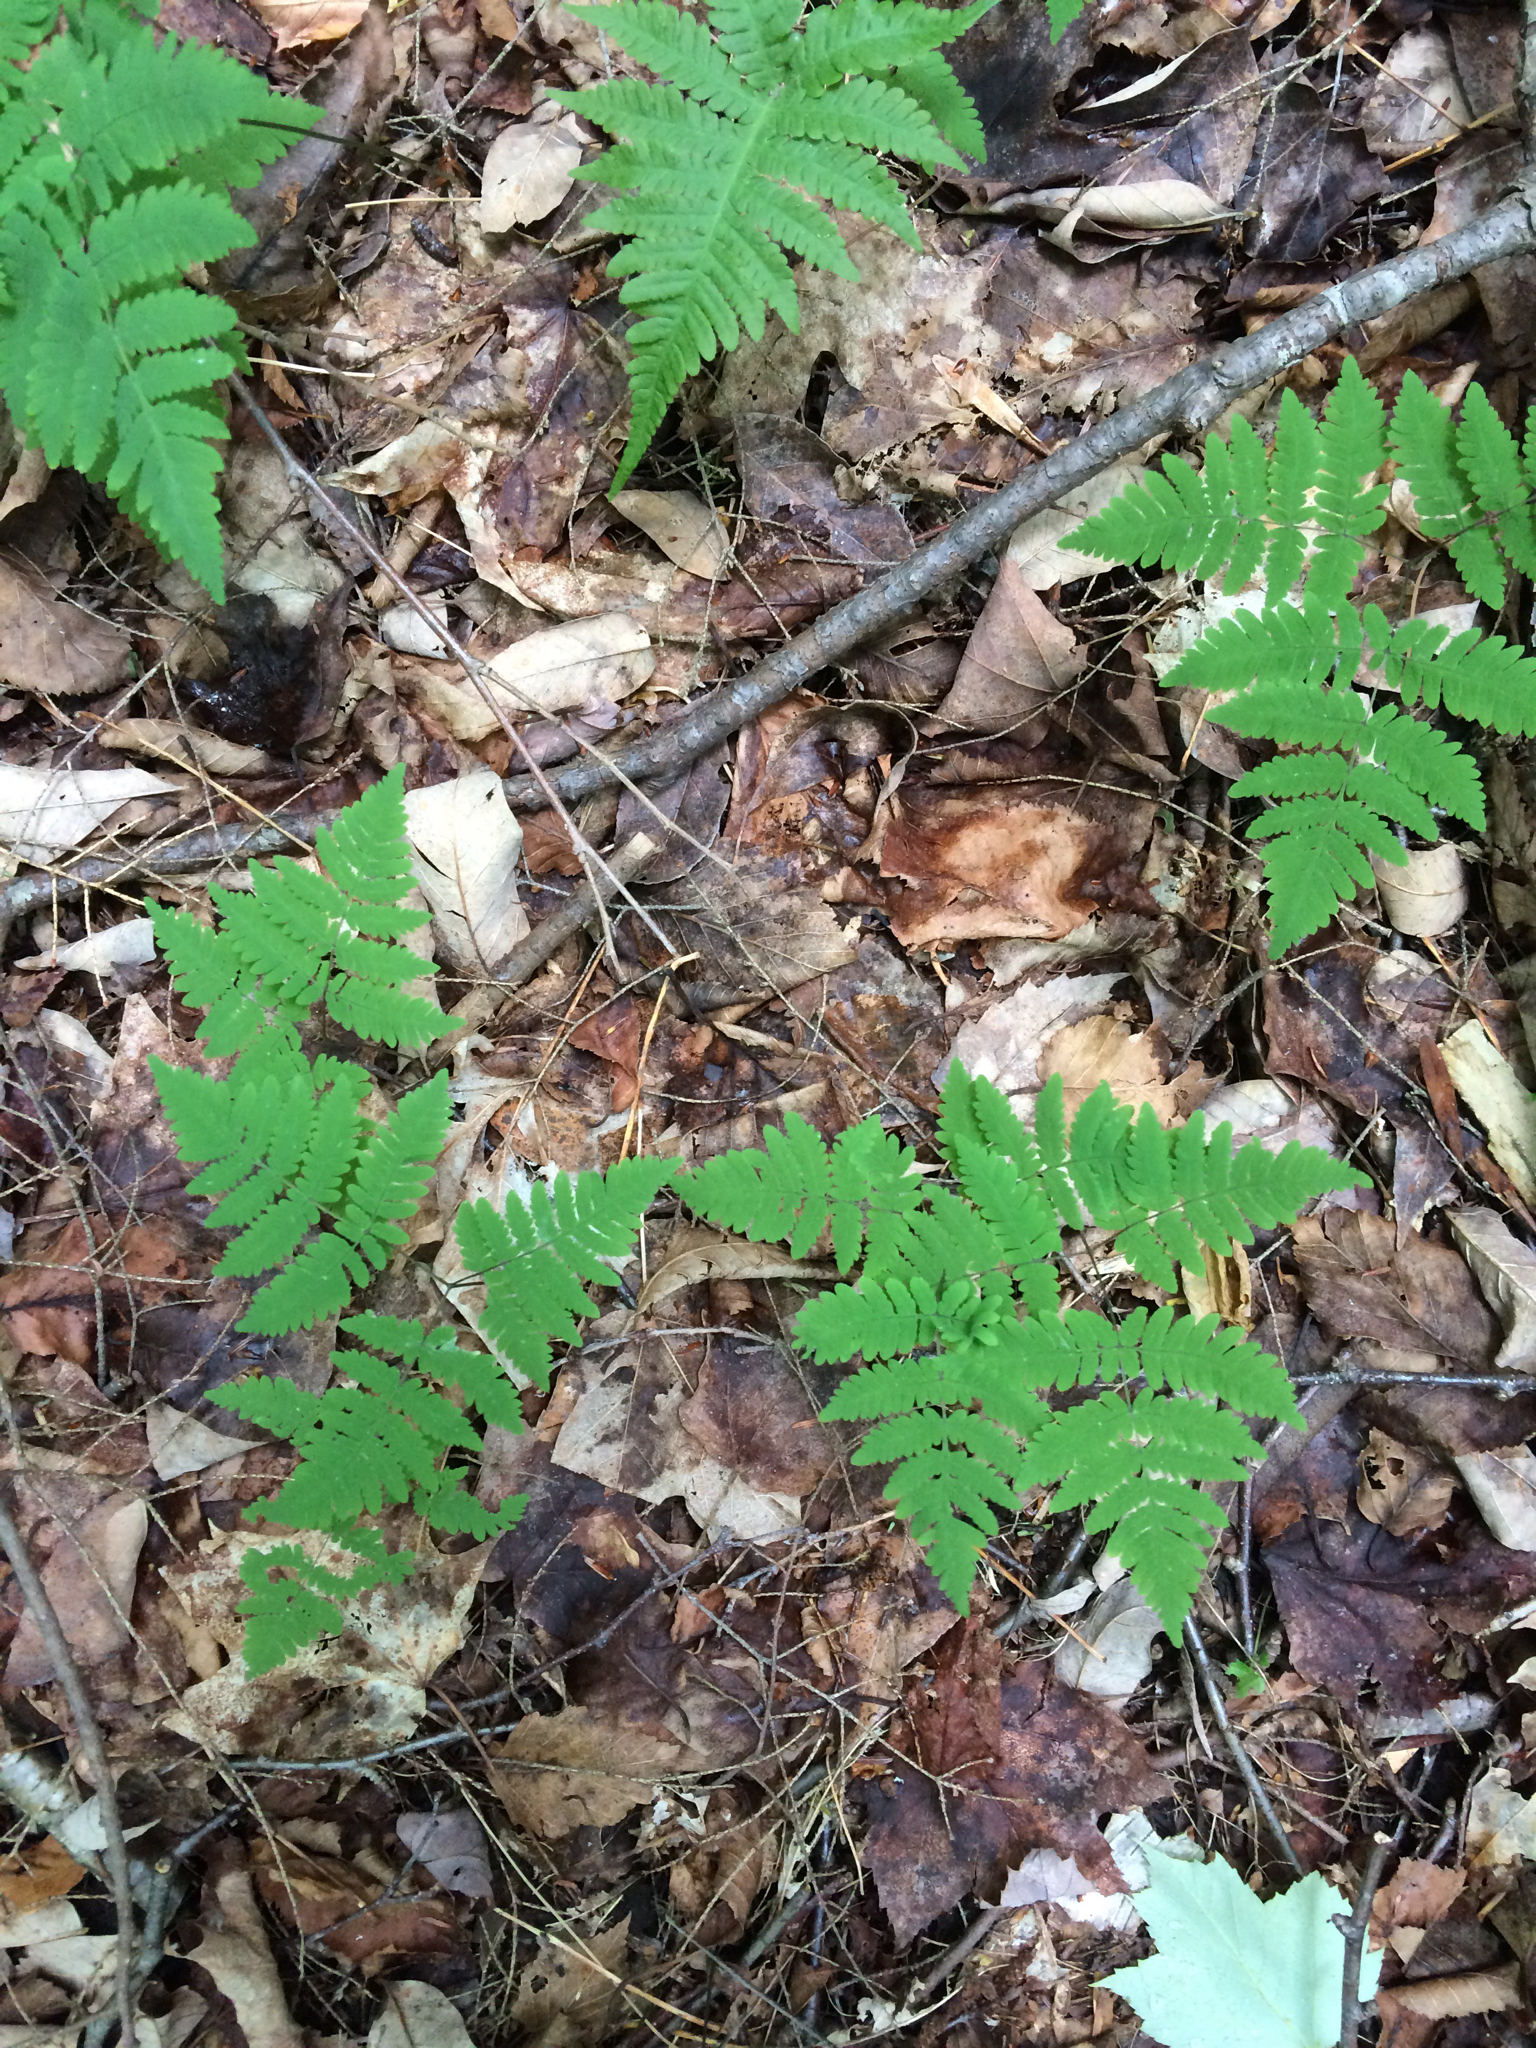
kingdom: Plantae
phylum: Tracheophyta
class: Polypodiopsida
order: Polypodiales
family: Cystopteridaceae
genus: Gymnocarpium
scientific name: Gymnocarpium dryopteris
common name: Oak fern
